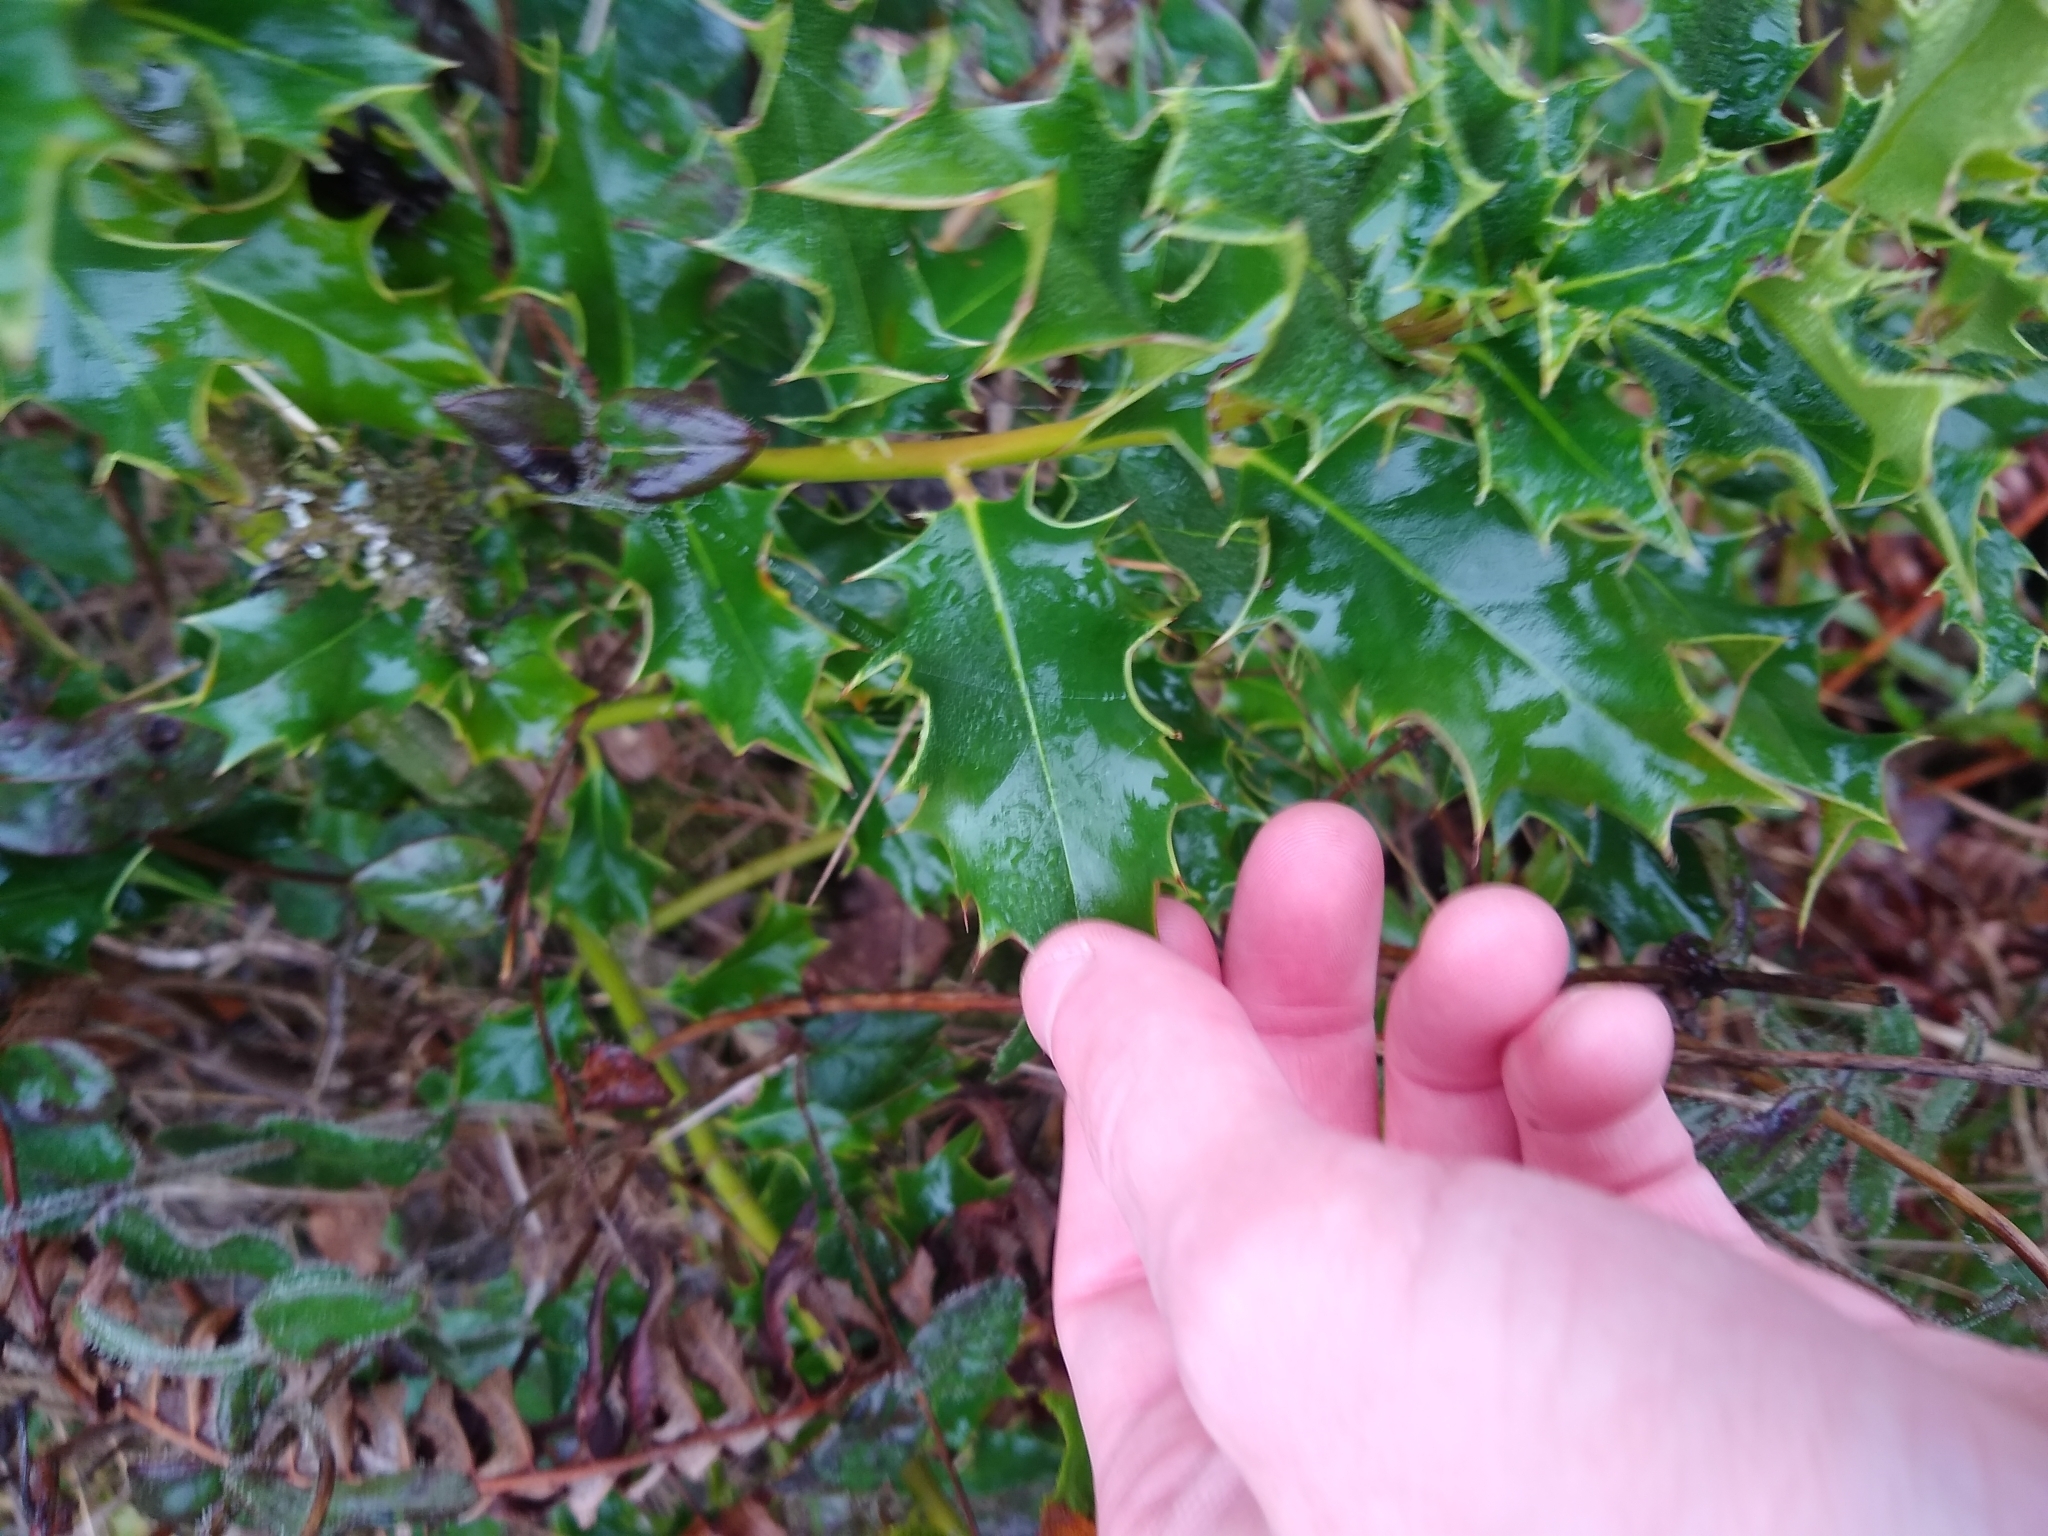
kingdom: Plantae
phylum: Tracheophyta
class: Magnoliopsida
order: Aquifoliales
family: Aquifoliaceae
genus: Ilex
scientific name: Ilex aquifolium
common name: English holly
